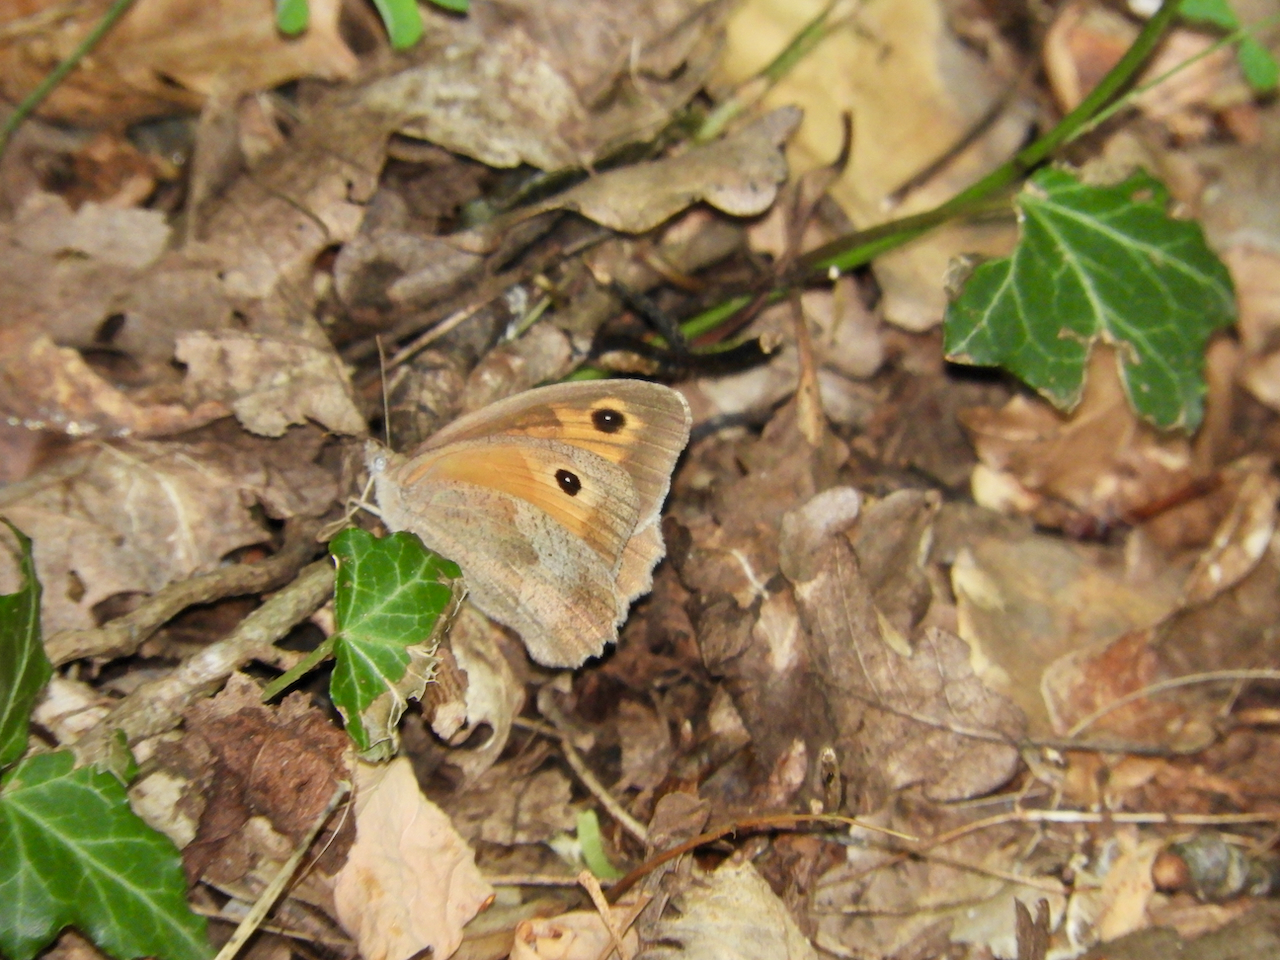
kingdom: Animalia
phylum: Arthropoda
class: Insecta
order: Lepidoptera
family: Nymphalidae
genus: Maniola
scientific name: Maniola jurtina
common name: Meadow brown
